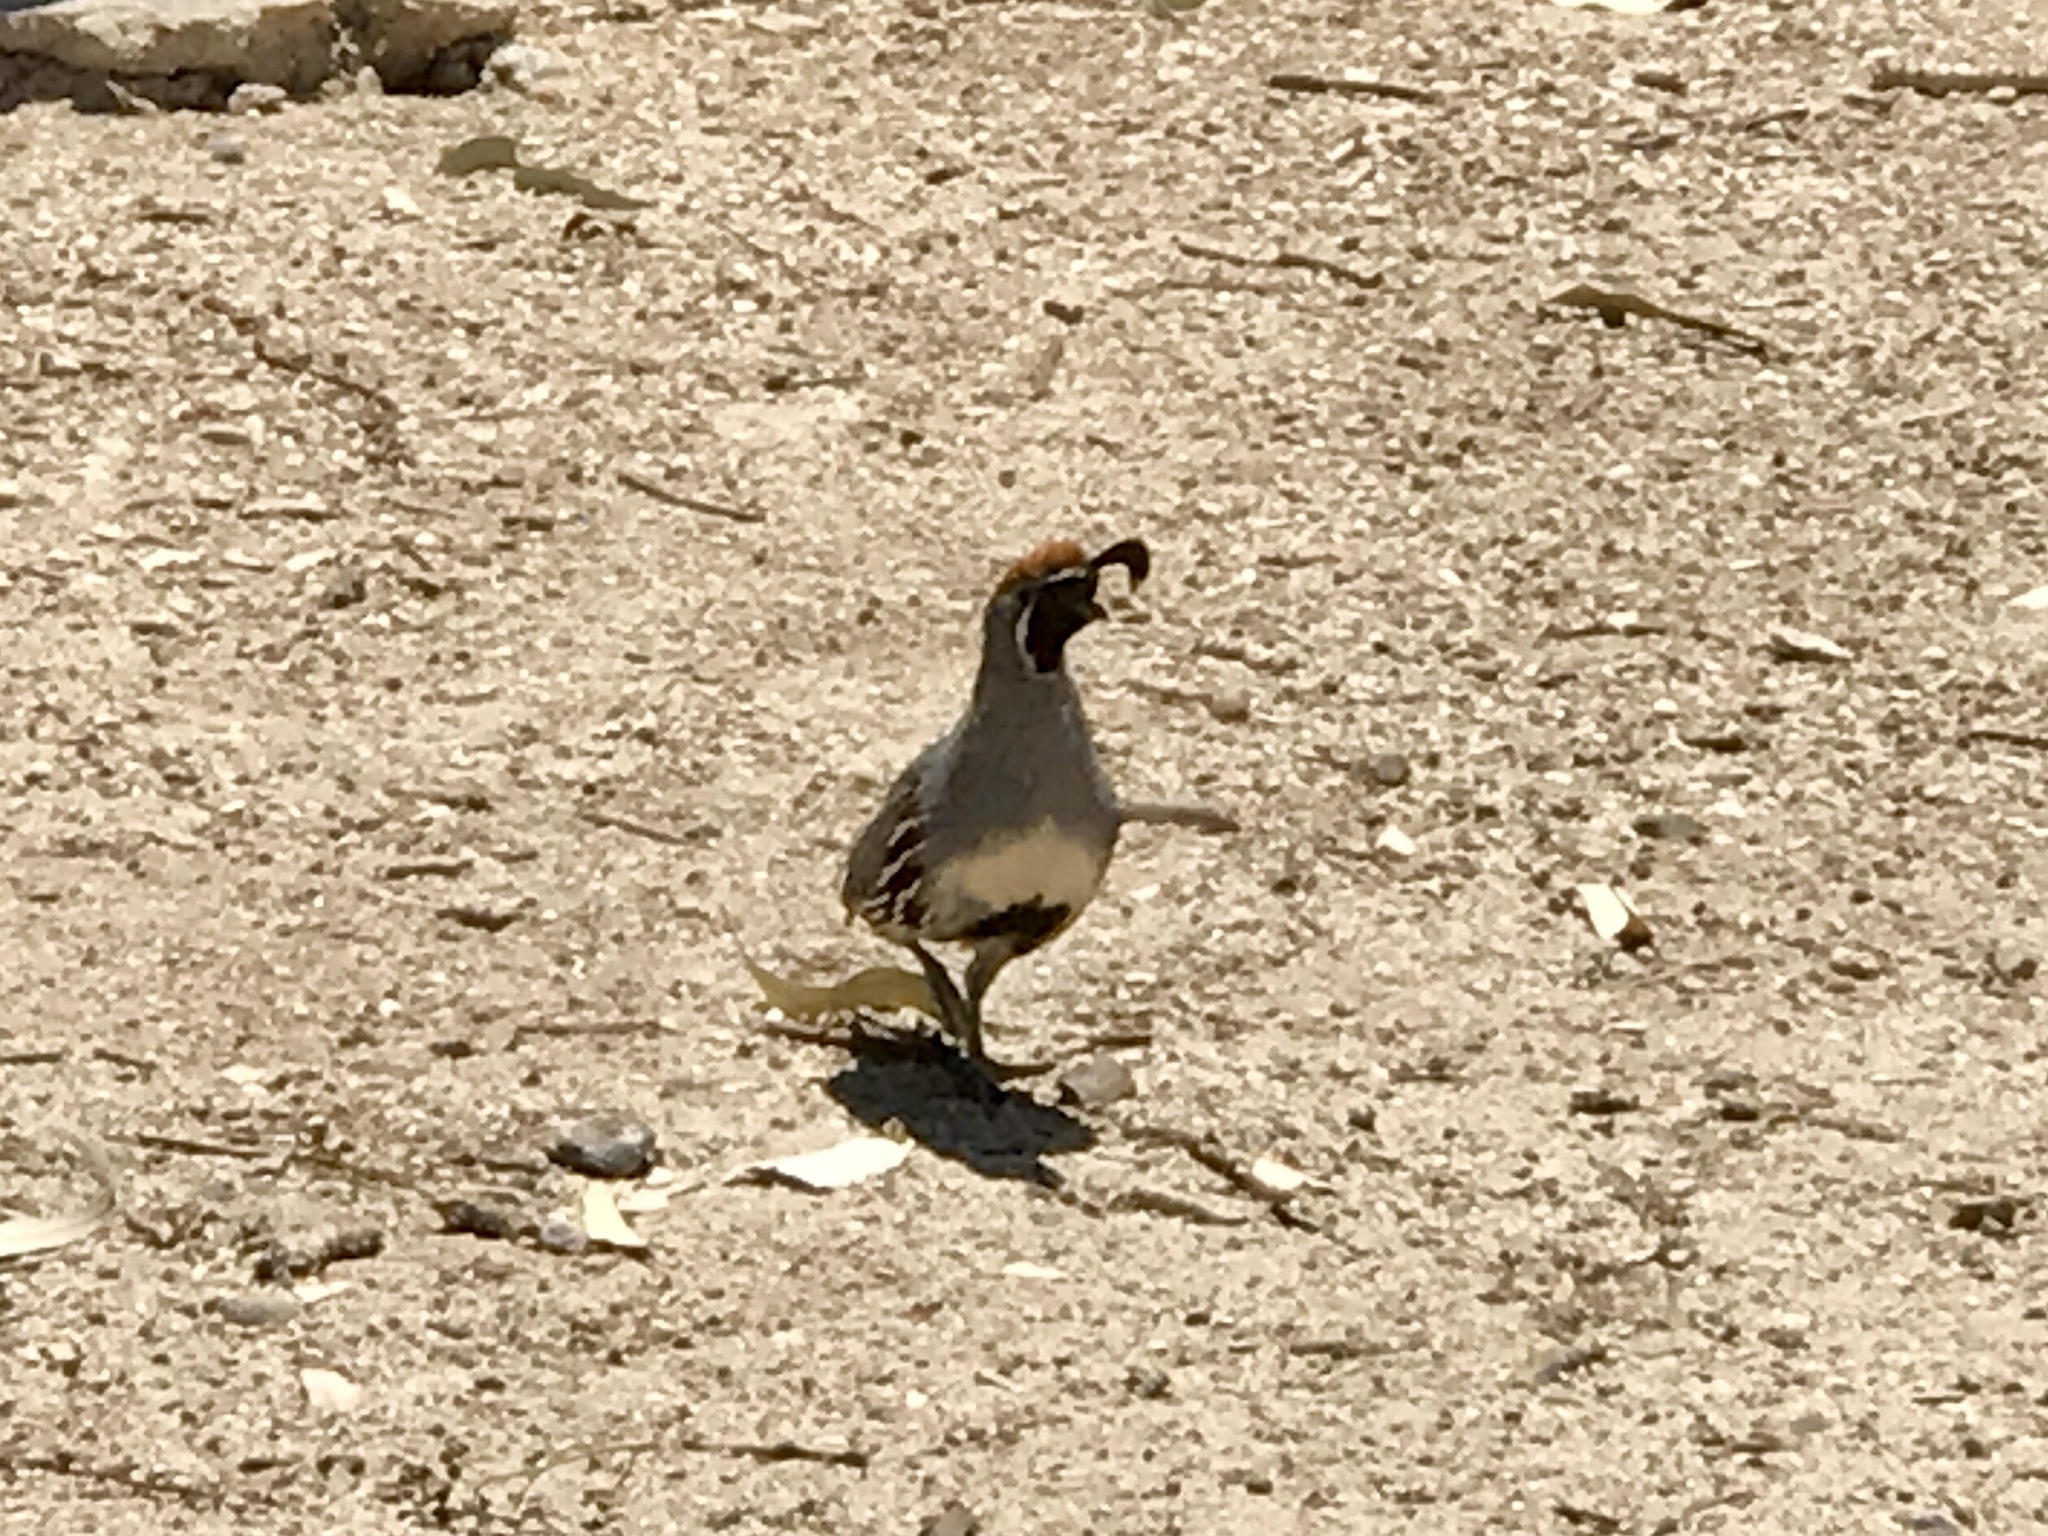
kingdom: Animalia
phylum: Chordata
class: Aves
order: Galliformes
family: Odontophoridae
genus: Callipepla
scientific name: Callipepla gambelii
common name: Gambel's quail
